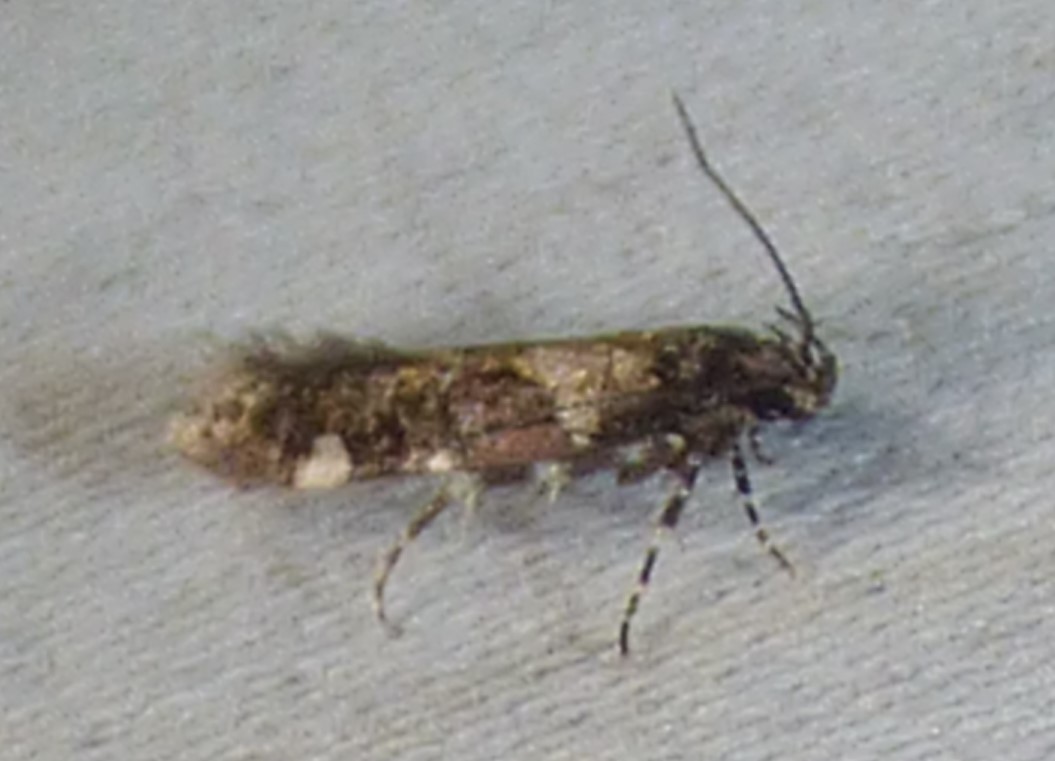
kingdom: Animalia
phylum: Arthropoda
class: Insecta
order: Lepidoptera
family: Gelechiidae
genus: Stegasta
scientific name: Stegasta bosqueella
